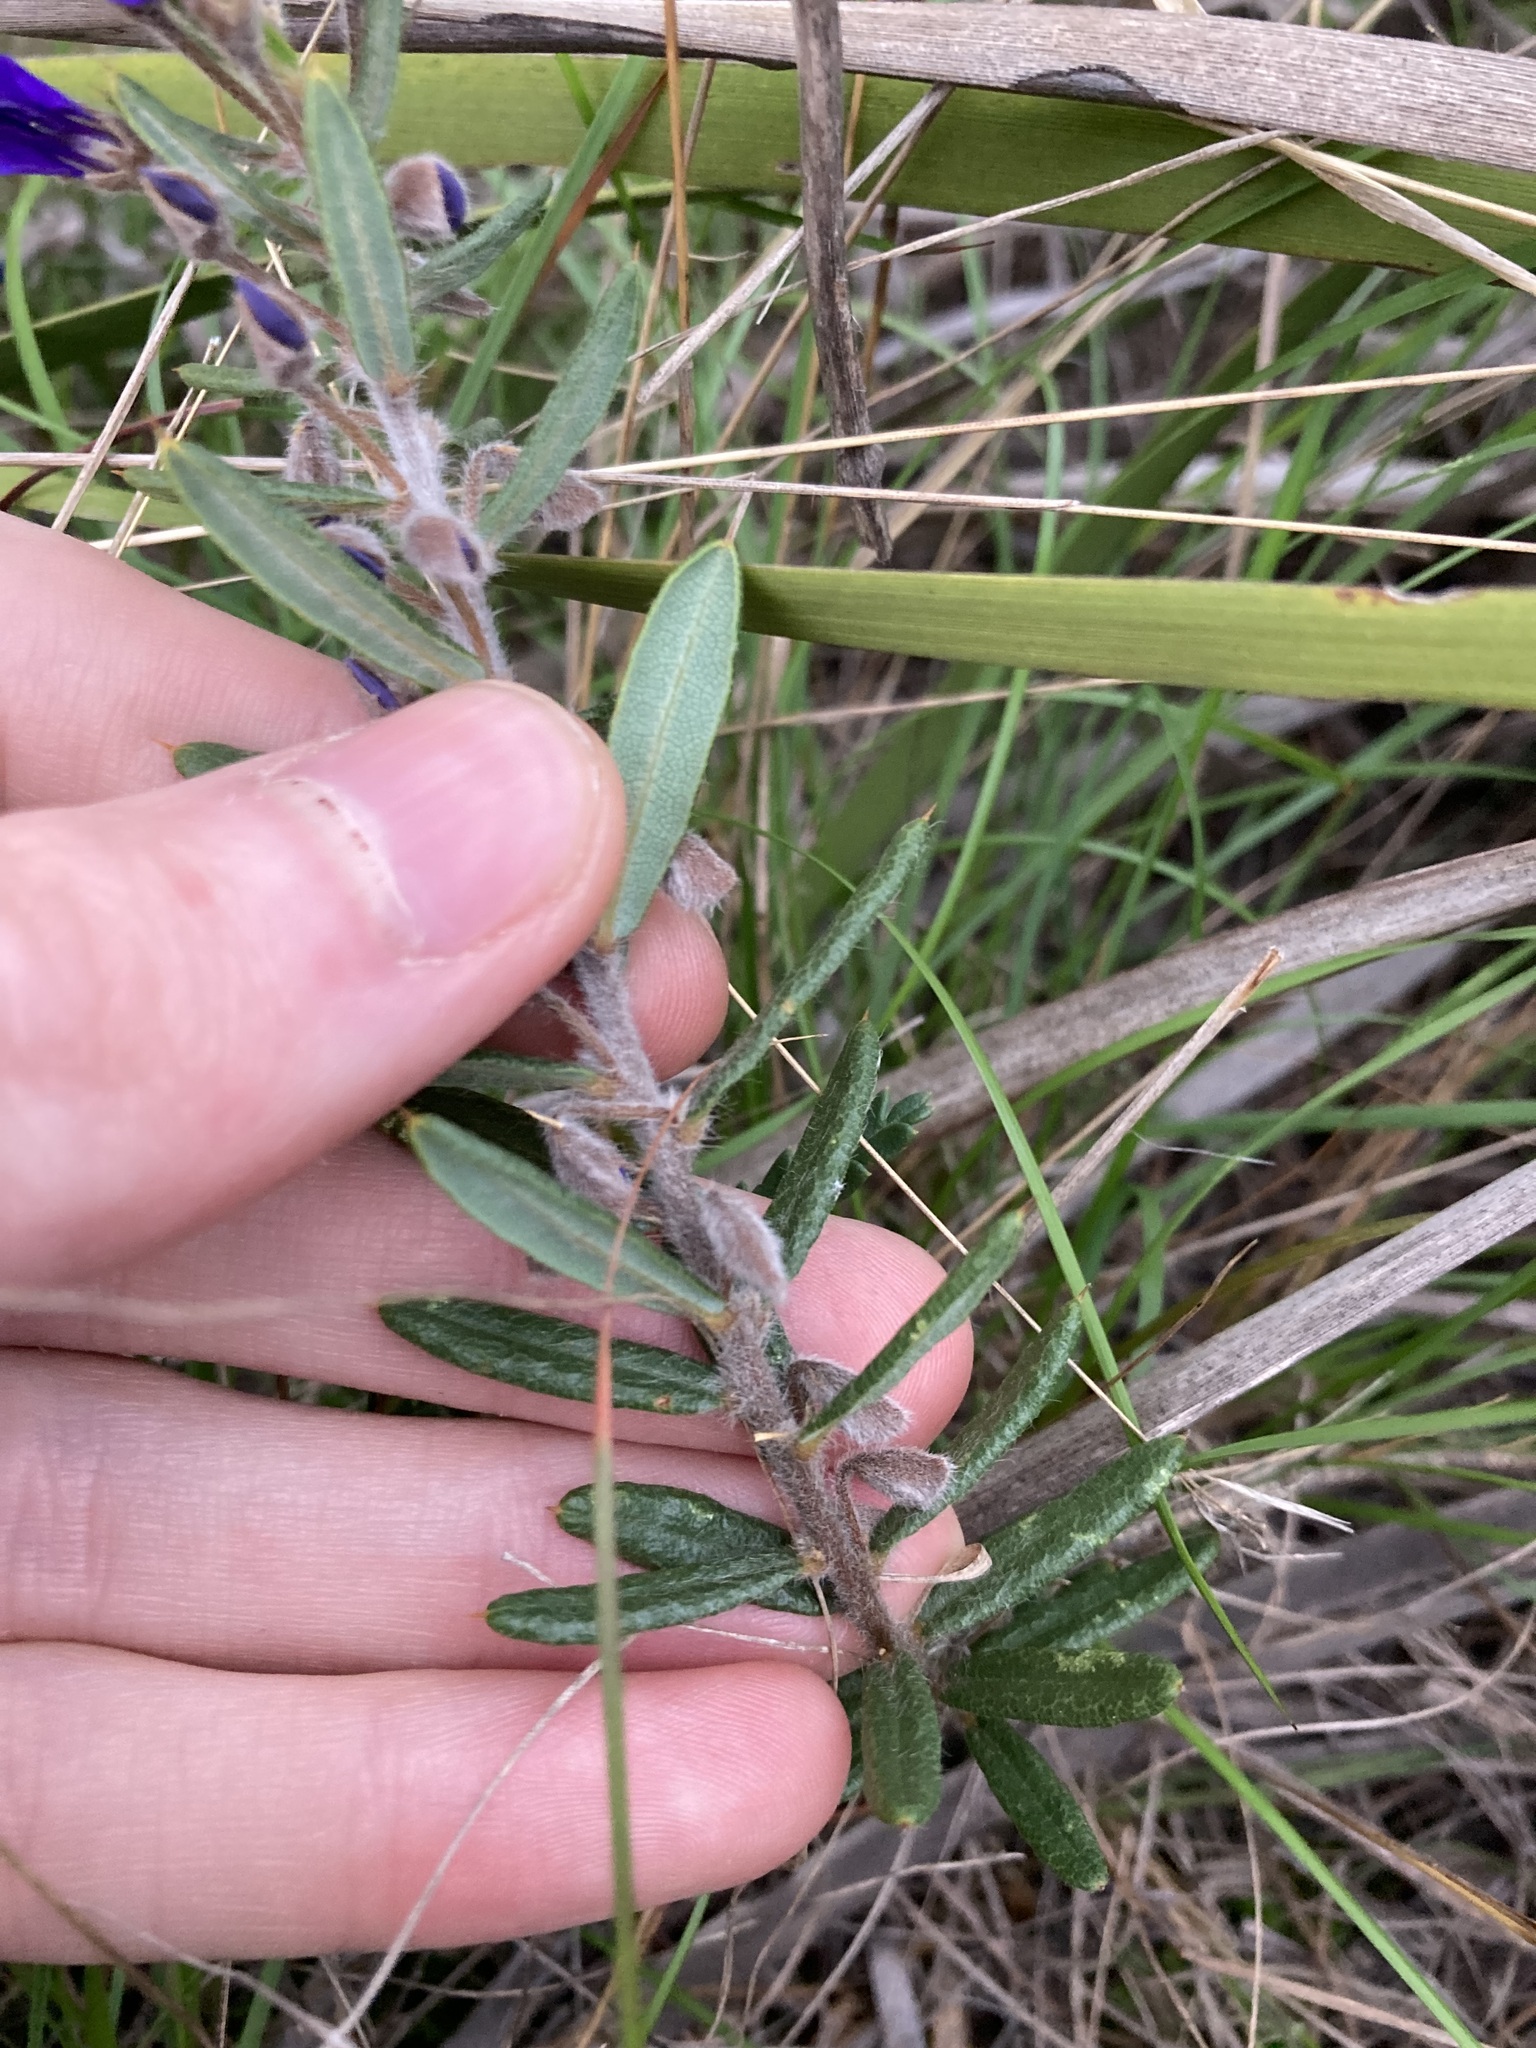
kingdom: Plantae
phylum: Tracheophyta
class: Magnoliopsida
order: Fabales
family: Fabaceae
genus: Hovea
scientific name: Hovea pungens
